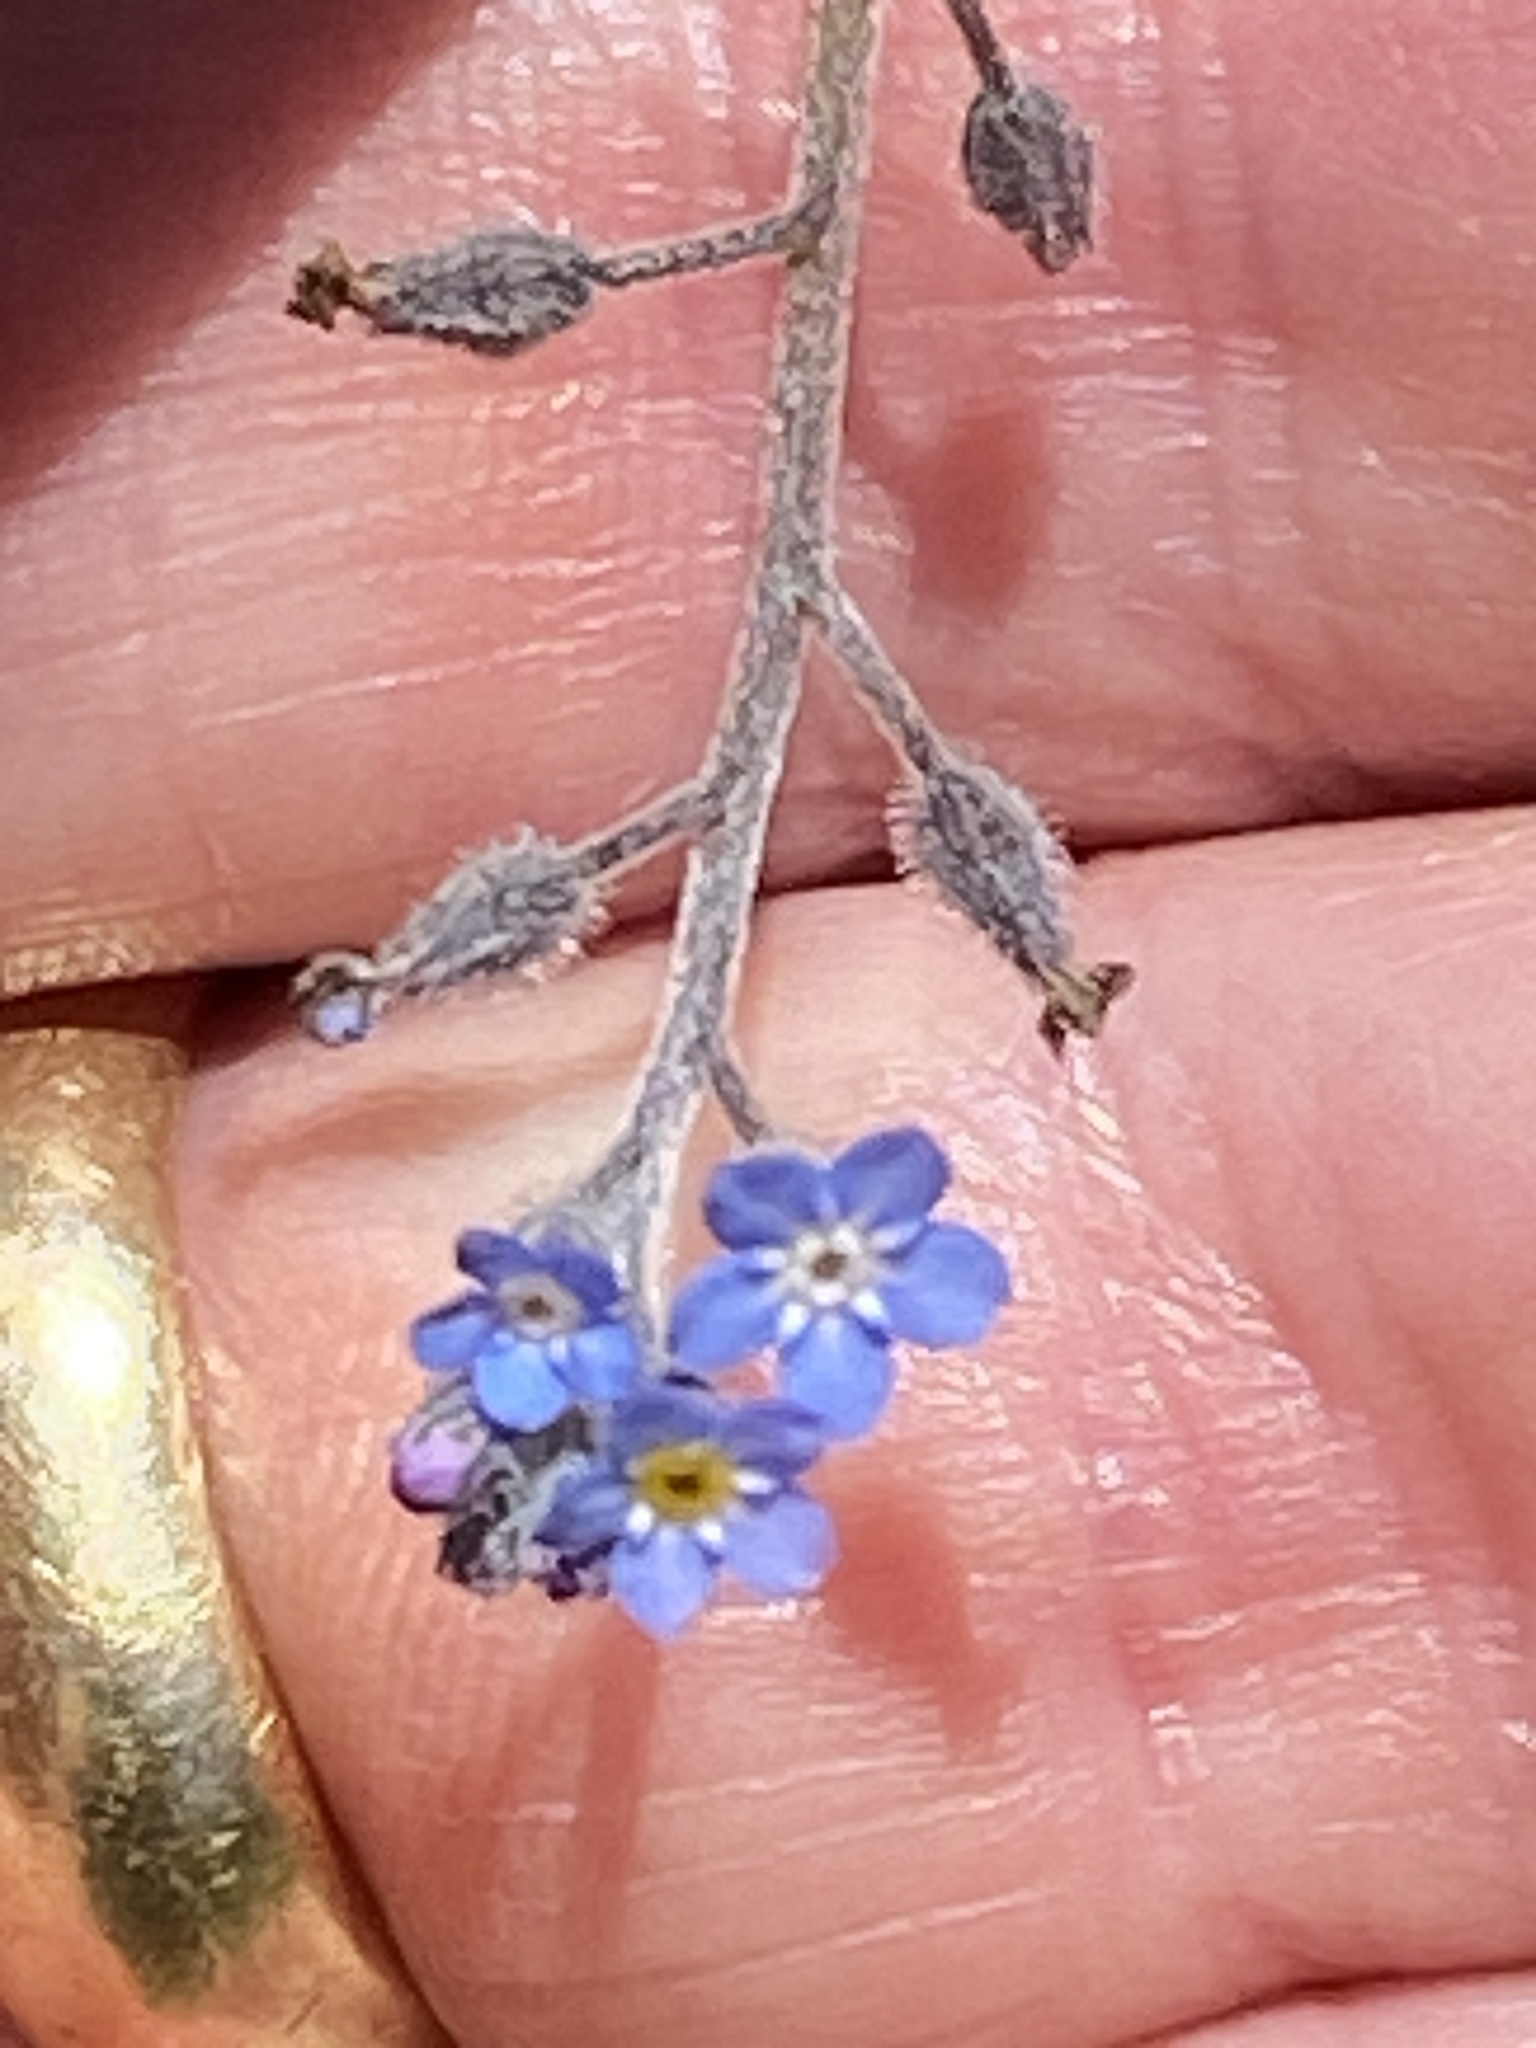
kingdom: Plantae
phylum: Tracheophyta
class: Magnoliopsida
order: Boraginales
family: Boraginaceae
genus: Myosotis
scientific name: Myosotis arvensis
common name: Field forget-me-not
